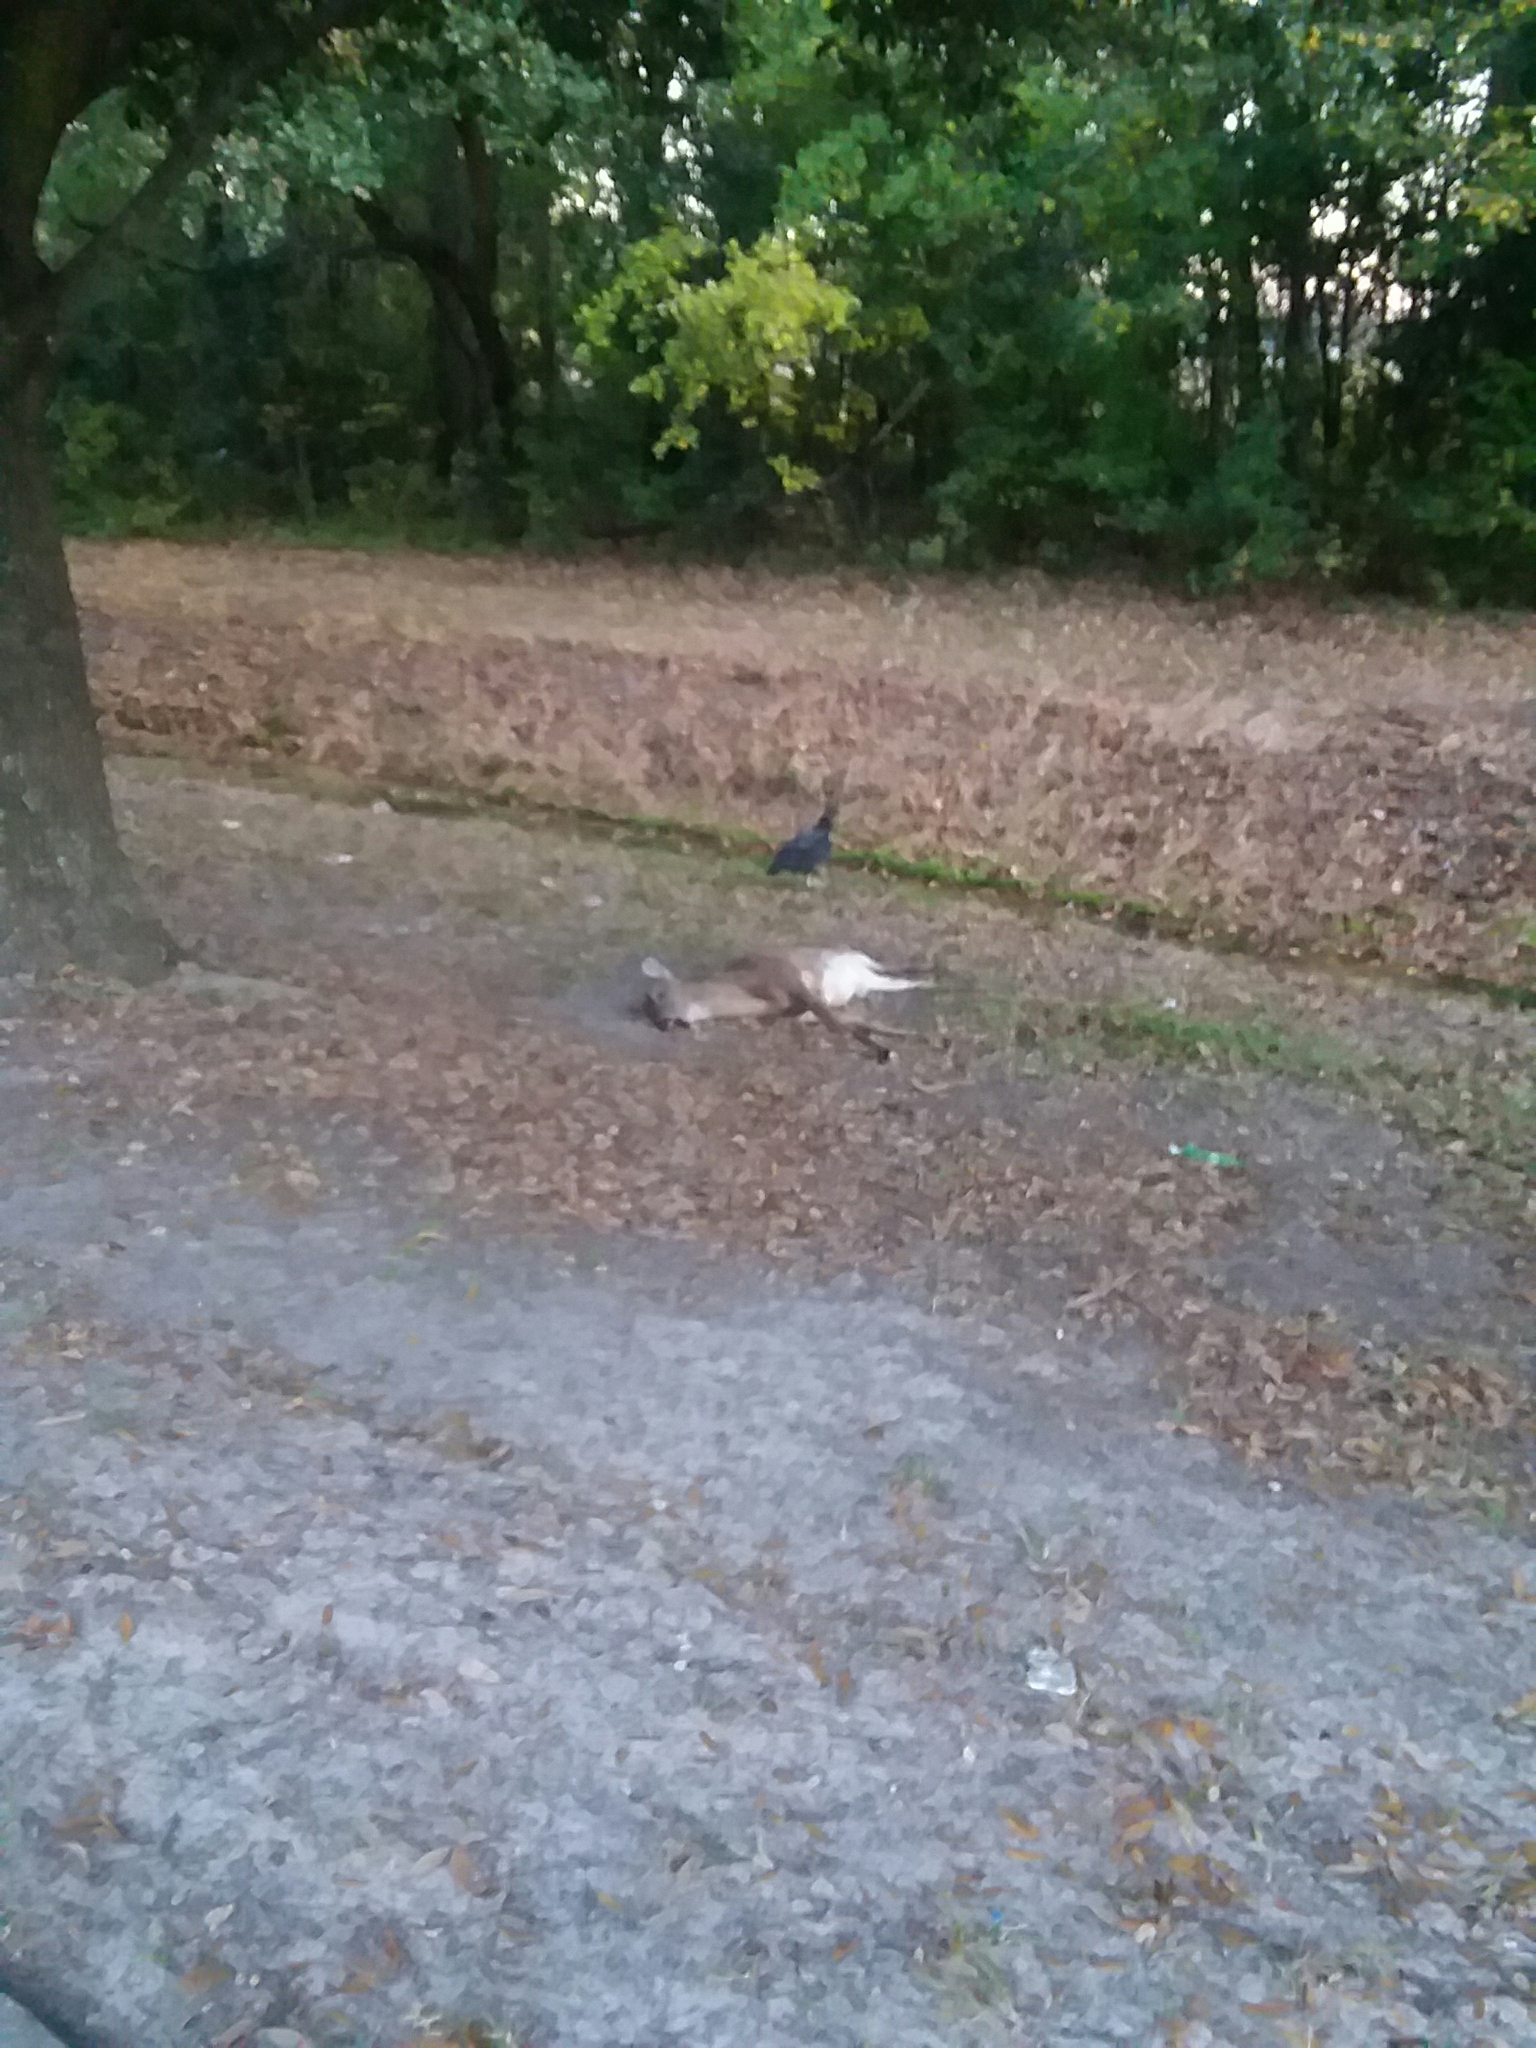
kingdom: Animalia
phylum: Chordata
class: Mammalia
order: Artiodactyla
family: Cervidae
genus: Odocoileus
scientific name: Odocoileus virginianus
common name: White-tailed deer
